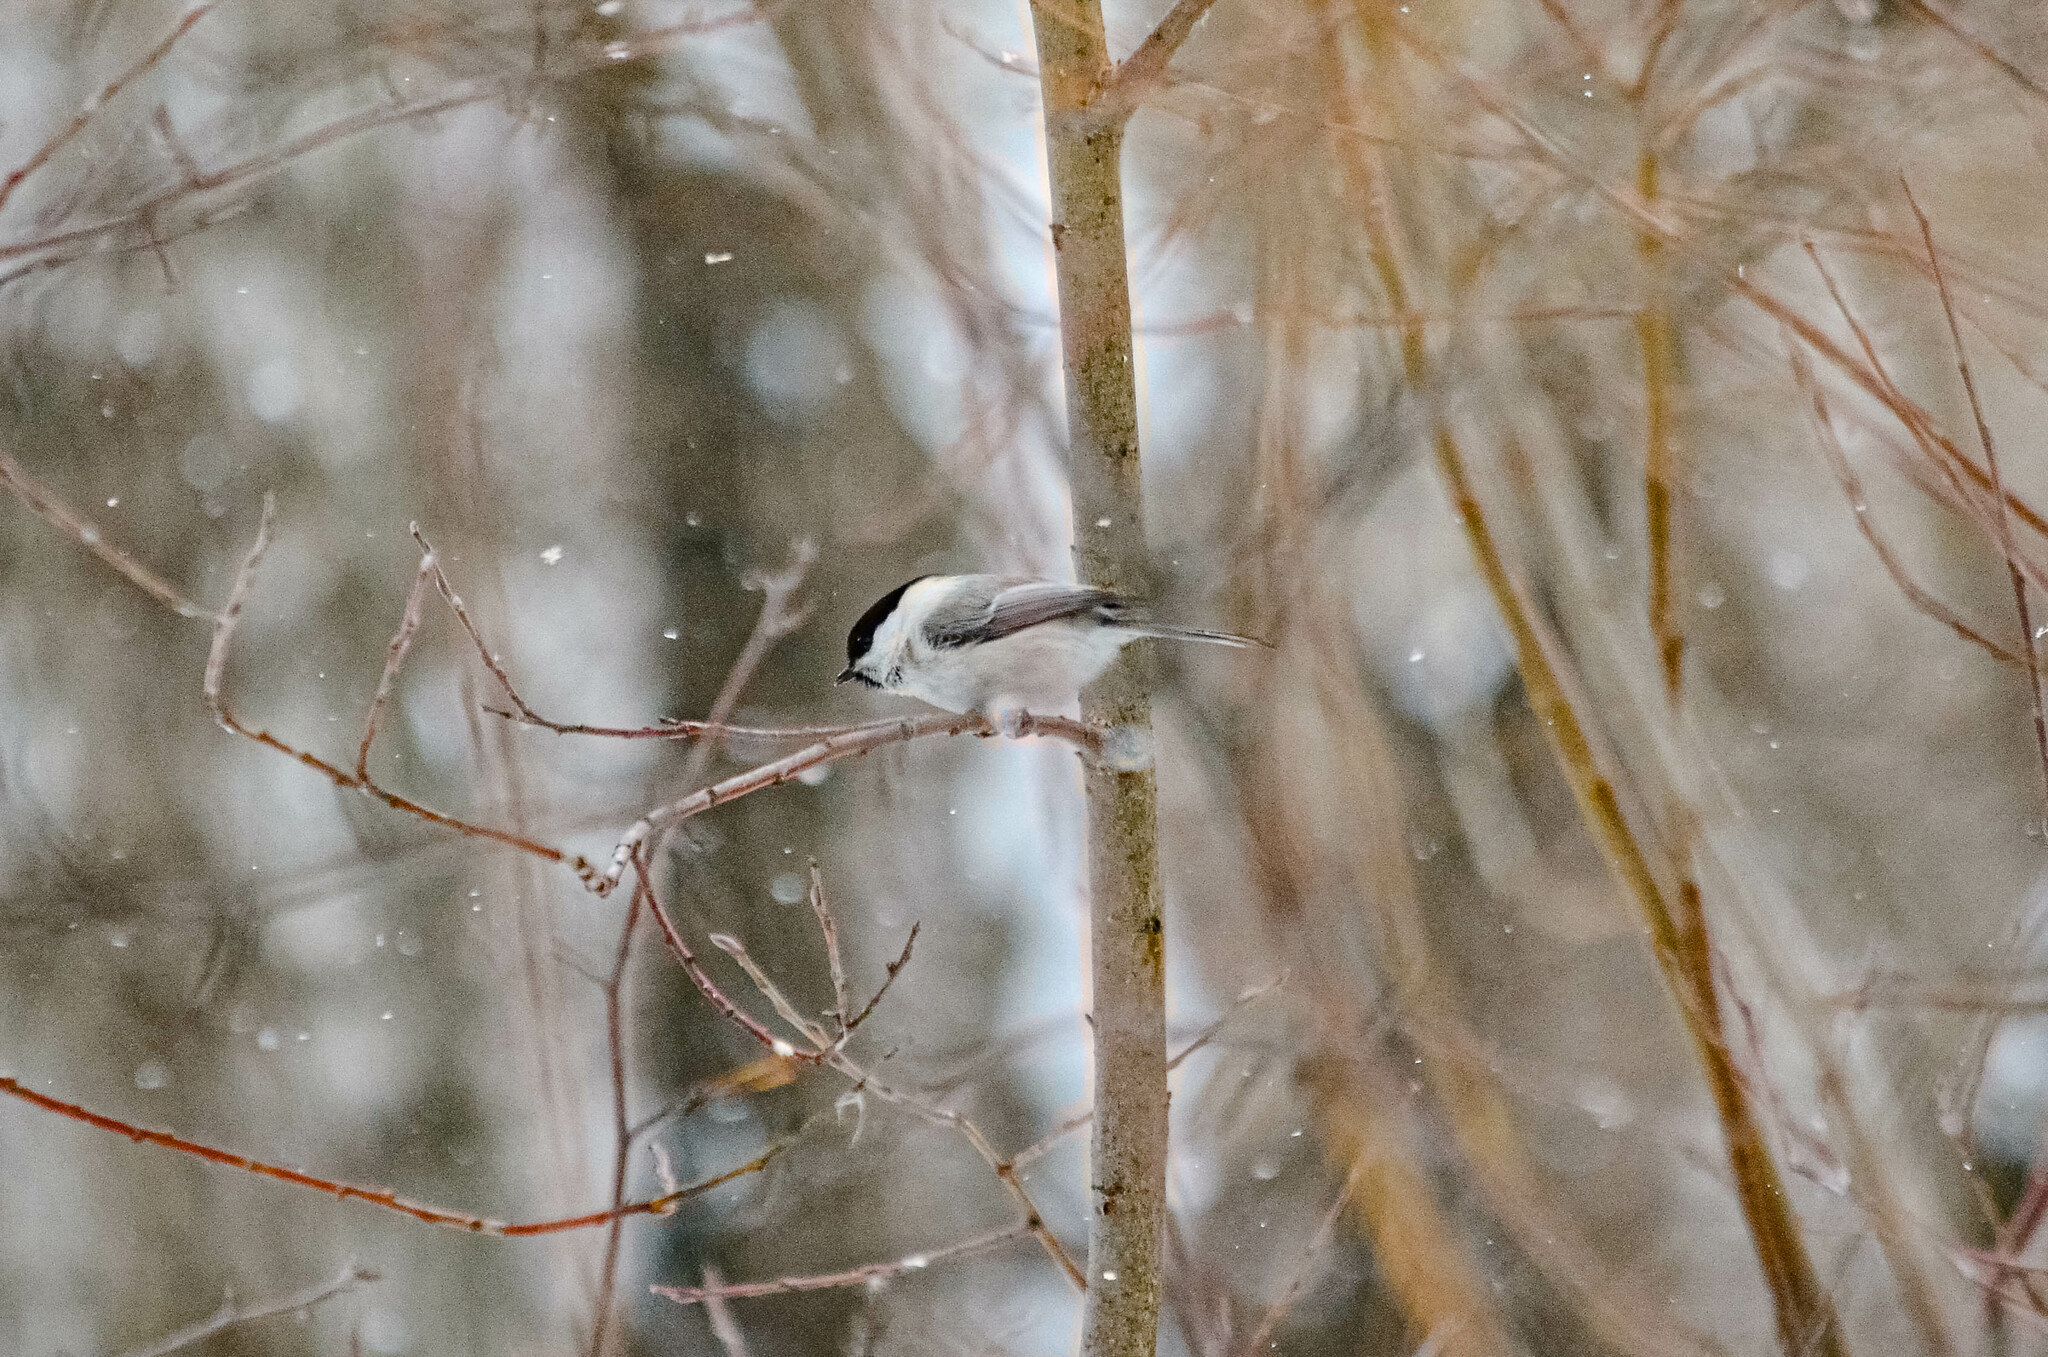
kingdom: Animalia
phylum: Chordata
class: Aves
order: Passeriformes
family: Paridae
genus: Poecile
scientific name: Poecile montanus
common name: Willow tit
